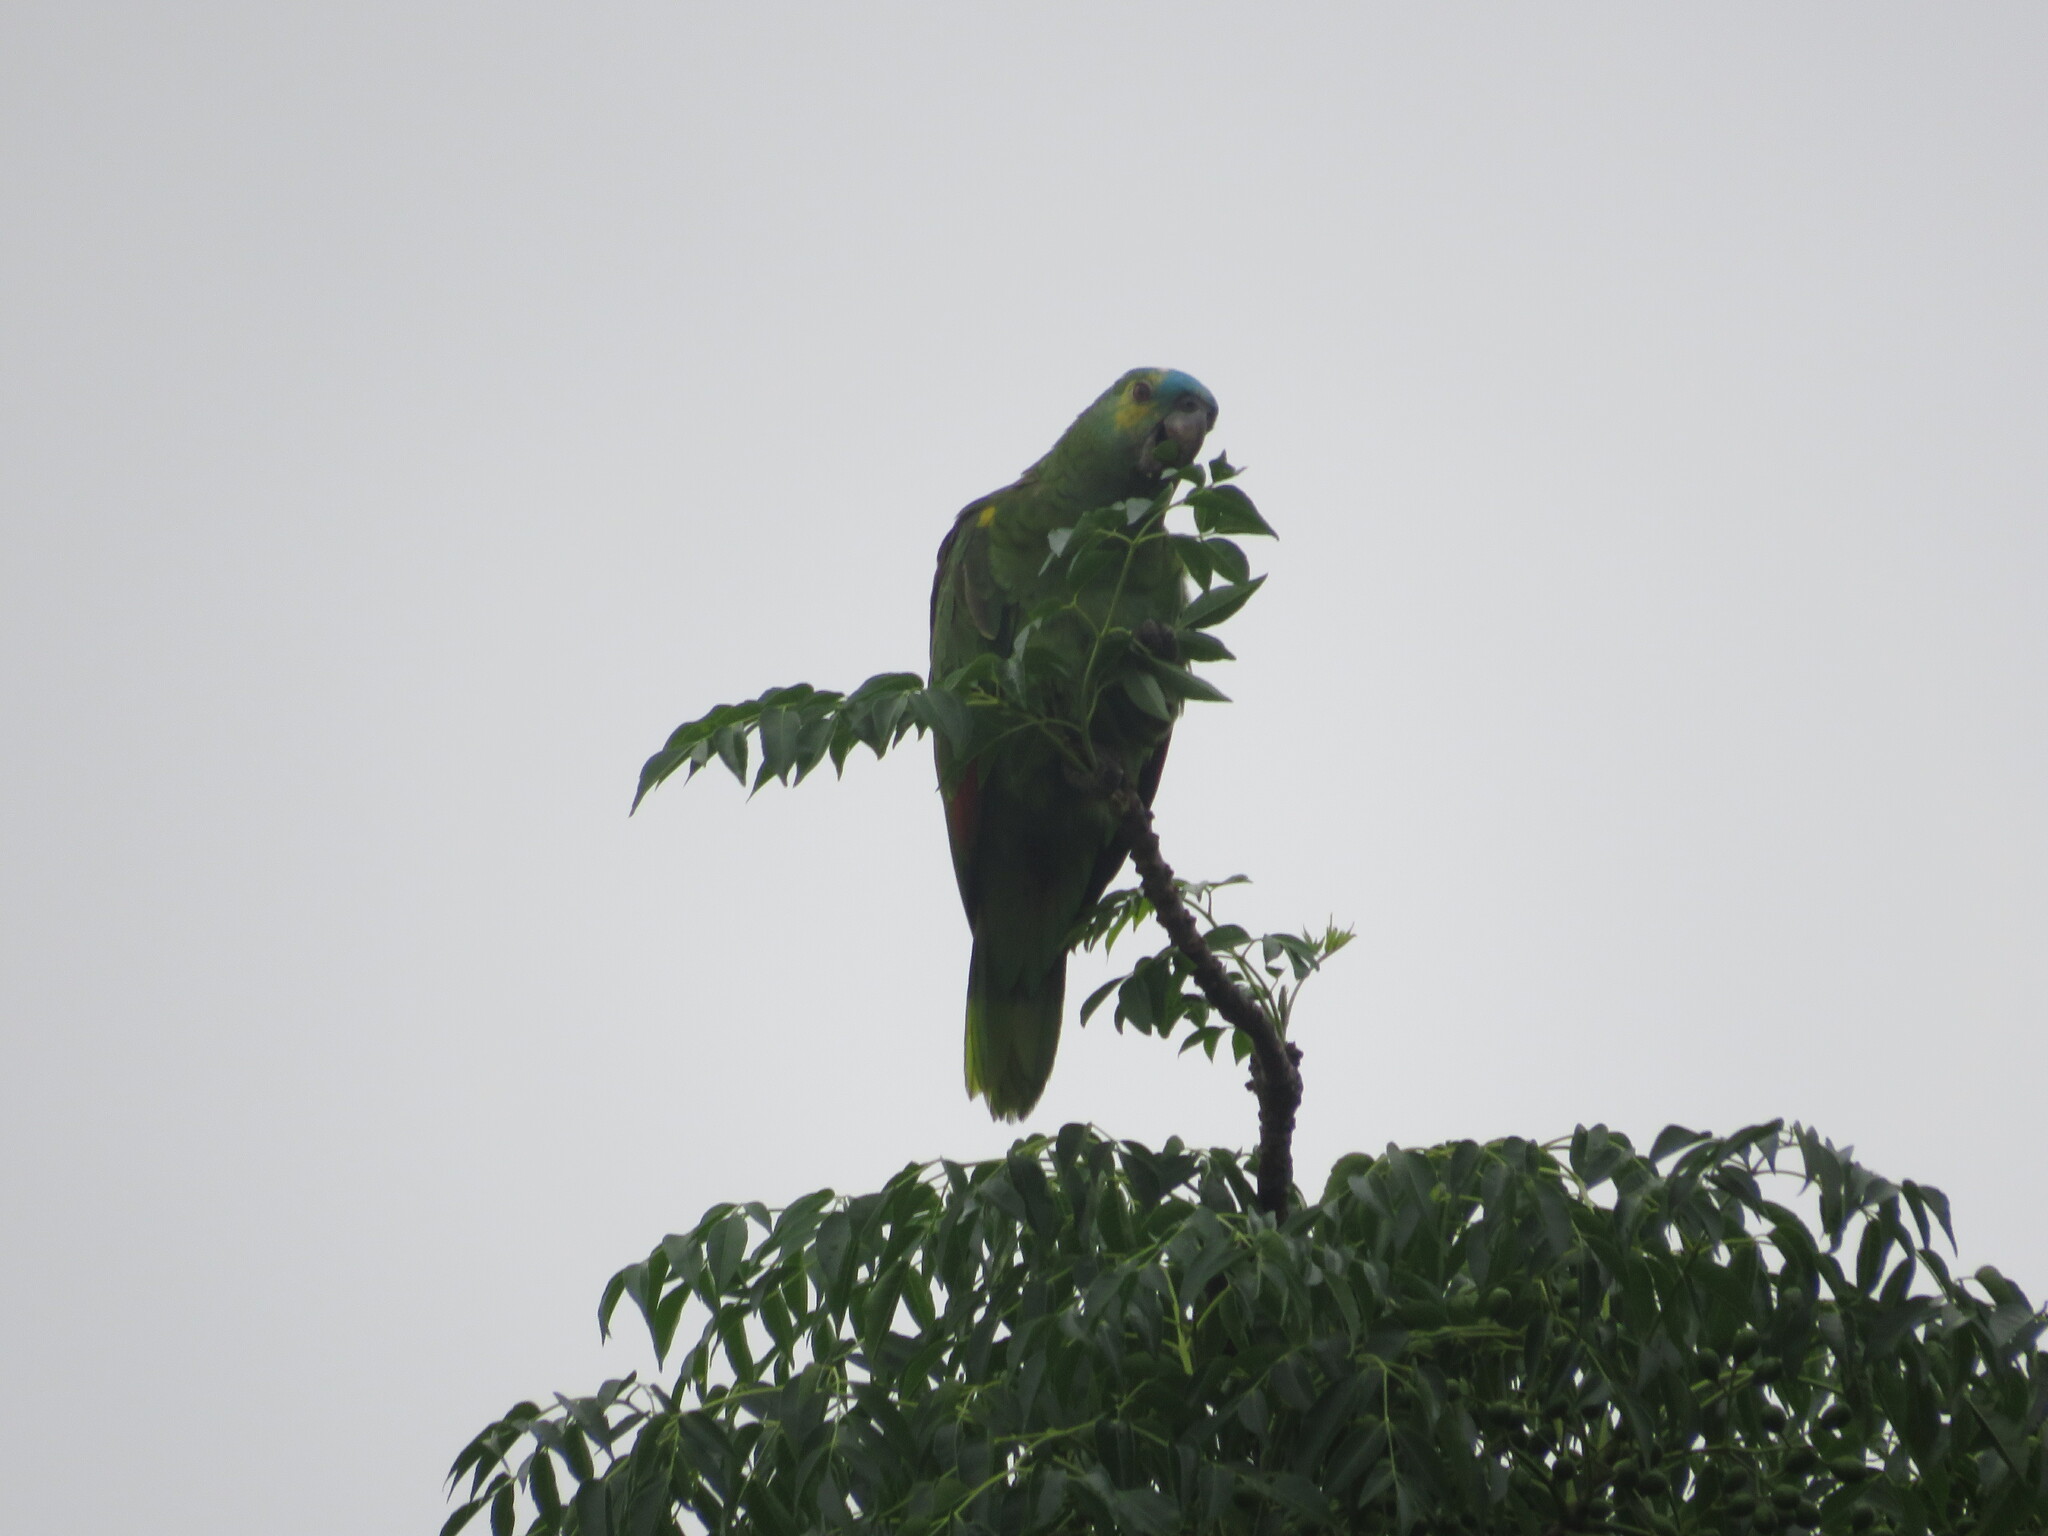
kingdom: Animalia
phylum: Chordata
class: Aves
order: Psittaciformes
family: Psittacidae
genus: Amazona
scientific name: Amazona aestiva
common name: Turquoise-fronted amazon
